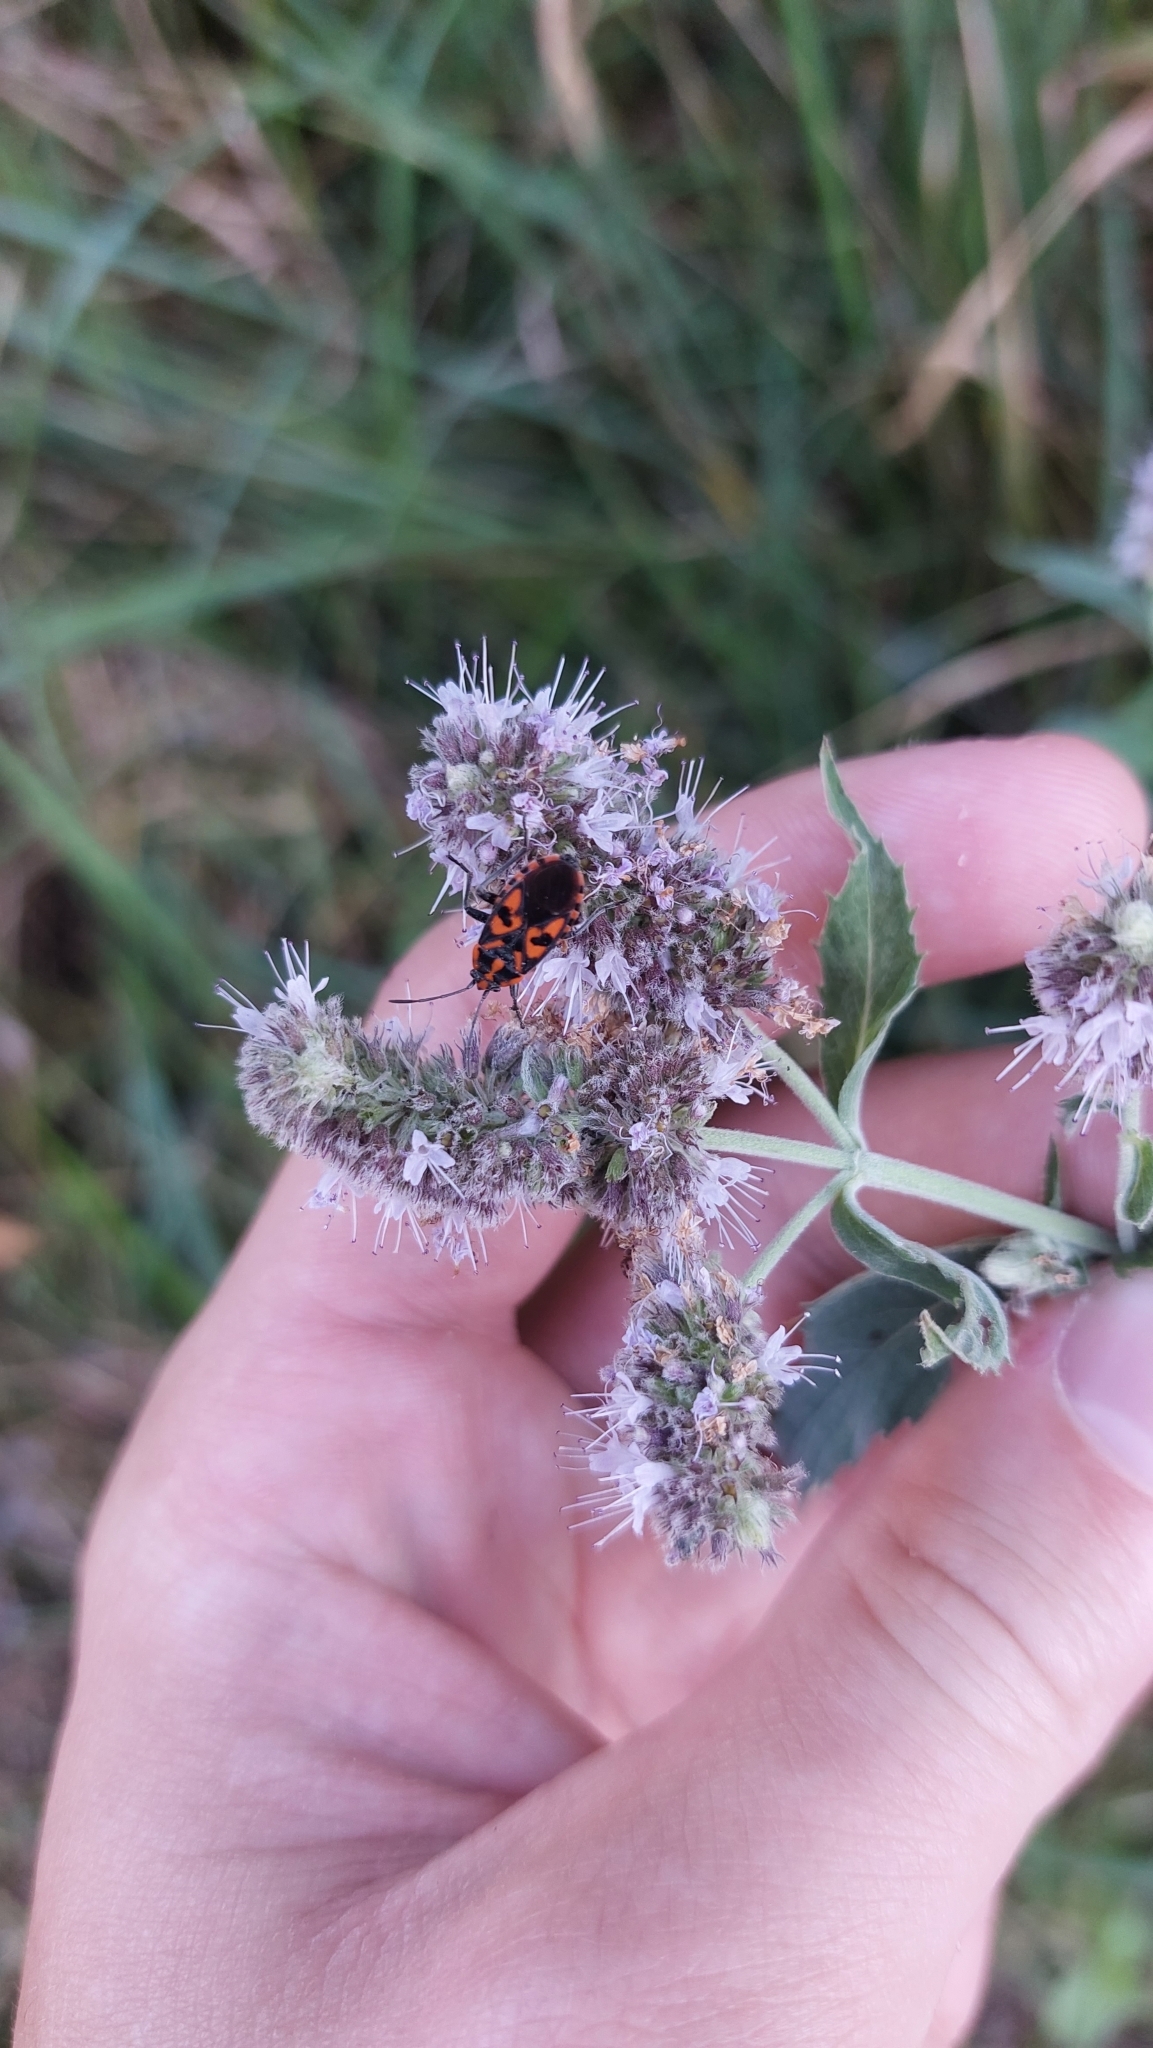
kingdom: Animalia
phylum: Arthropoda
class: Insecta
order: Hemiptera
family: Lygaeidae
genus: Spilostethus
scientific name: Spilostethus saxatilis
